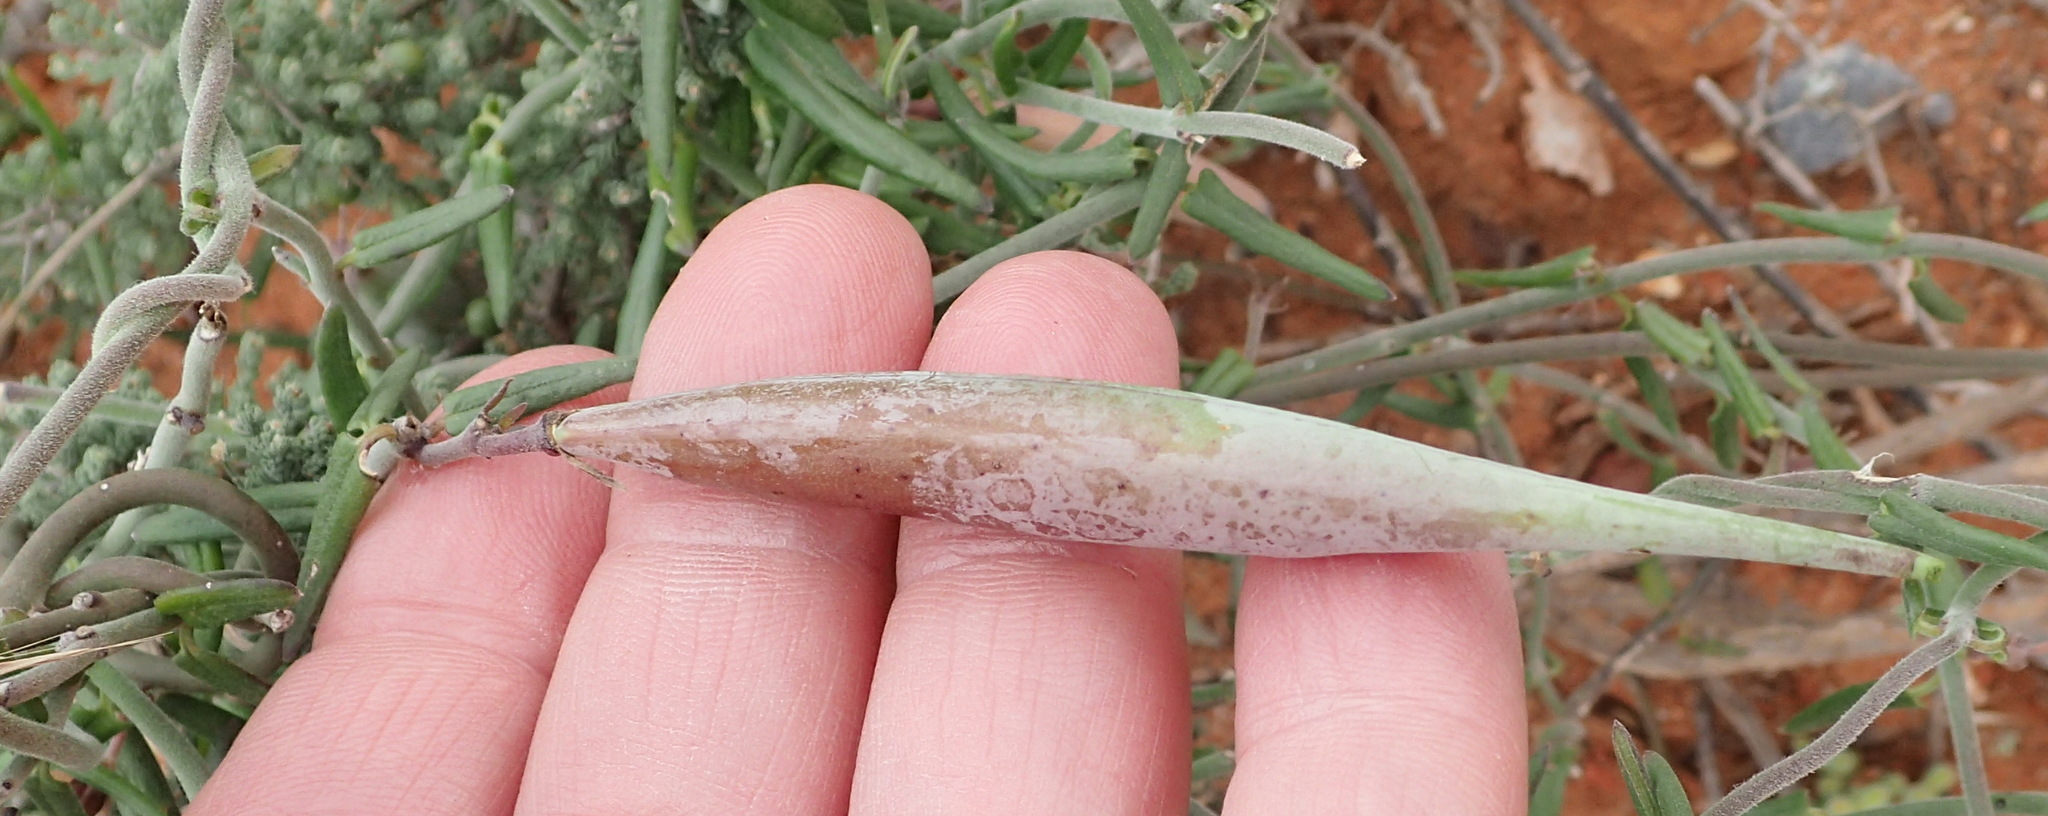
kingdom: Plantae
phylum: Tracheophyta
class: Magnoliopsida
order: Gentianales
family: Apocynaceae
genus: Microloma
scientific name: Microloma sagittatum
